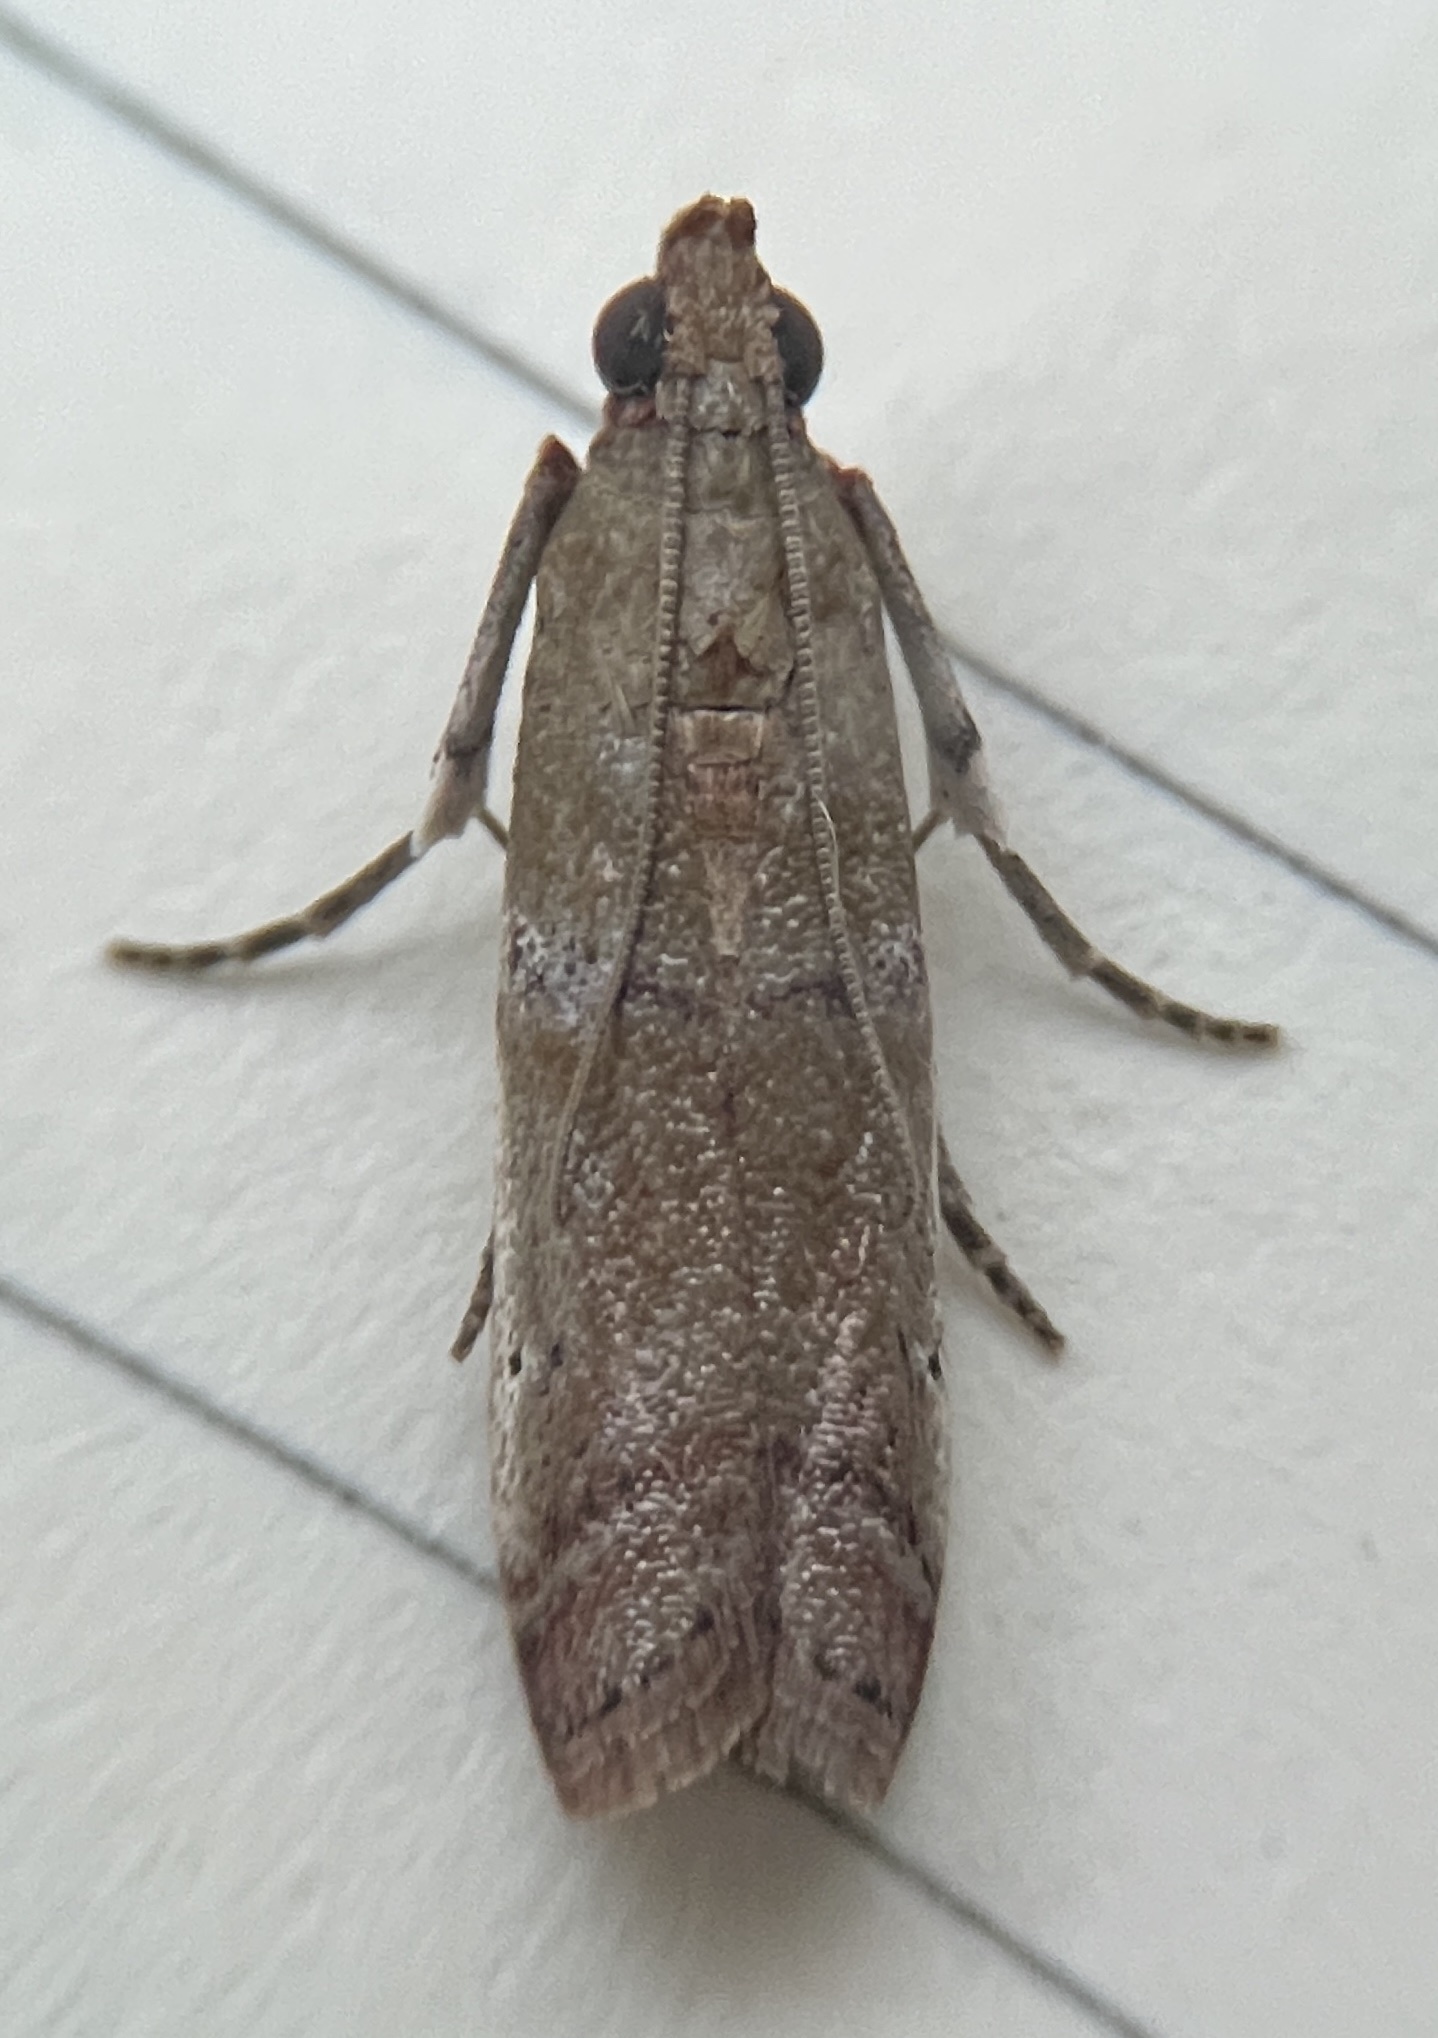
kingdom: Animalia
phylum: Arthropoda
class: Insecta
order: Lepidoptera
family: Pyralidae
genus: Atheloca
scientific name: Atheloca subrufella
